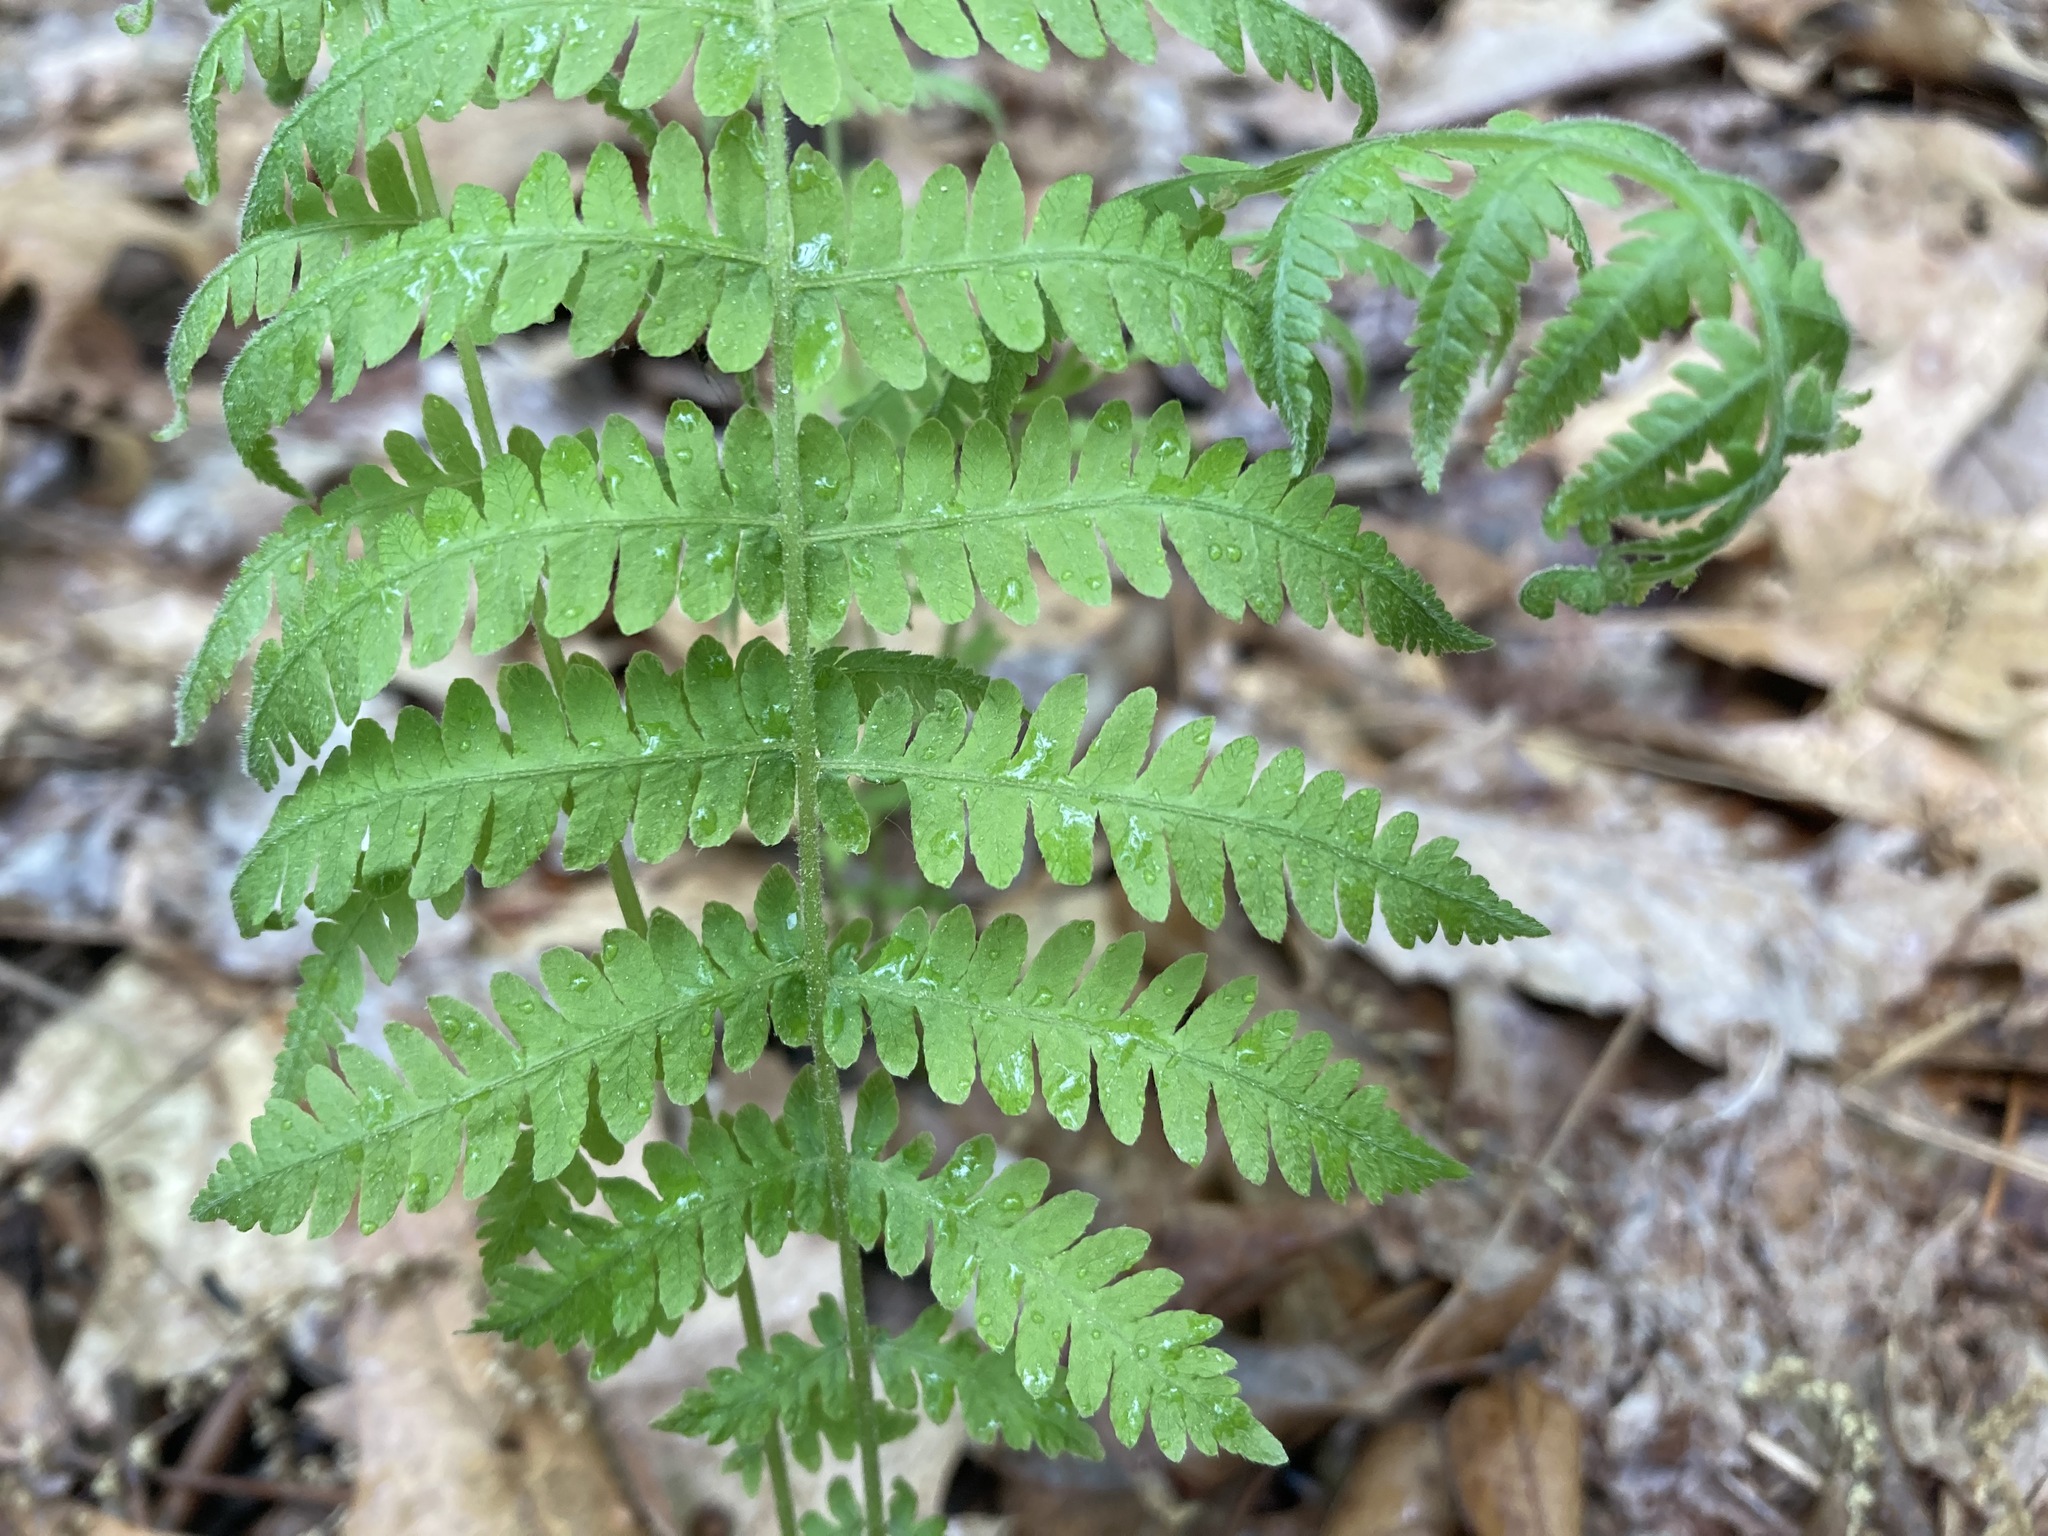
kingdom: Plantae
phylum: Tracheophyta
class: Polypodiopsida
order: Polypodiales
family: Thelypteridaceae
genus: Amauropelta
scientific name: Amauropelta noveboracensis
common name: New york fern
